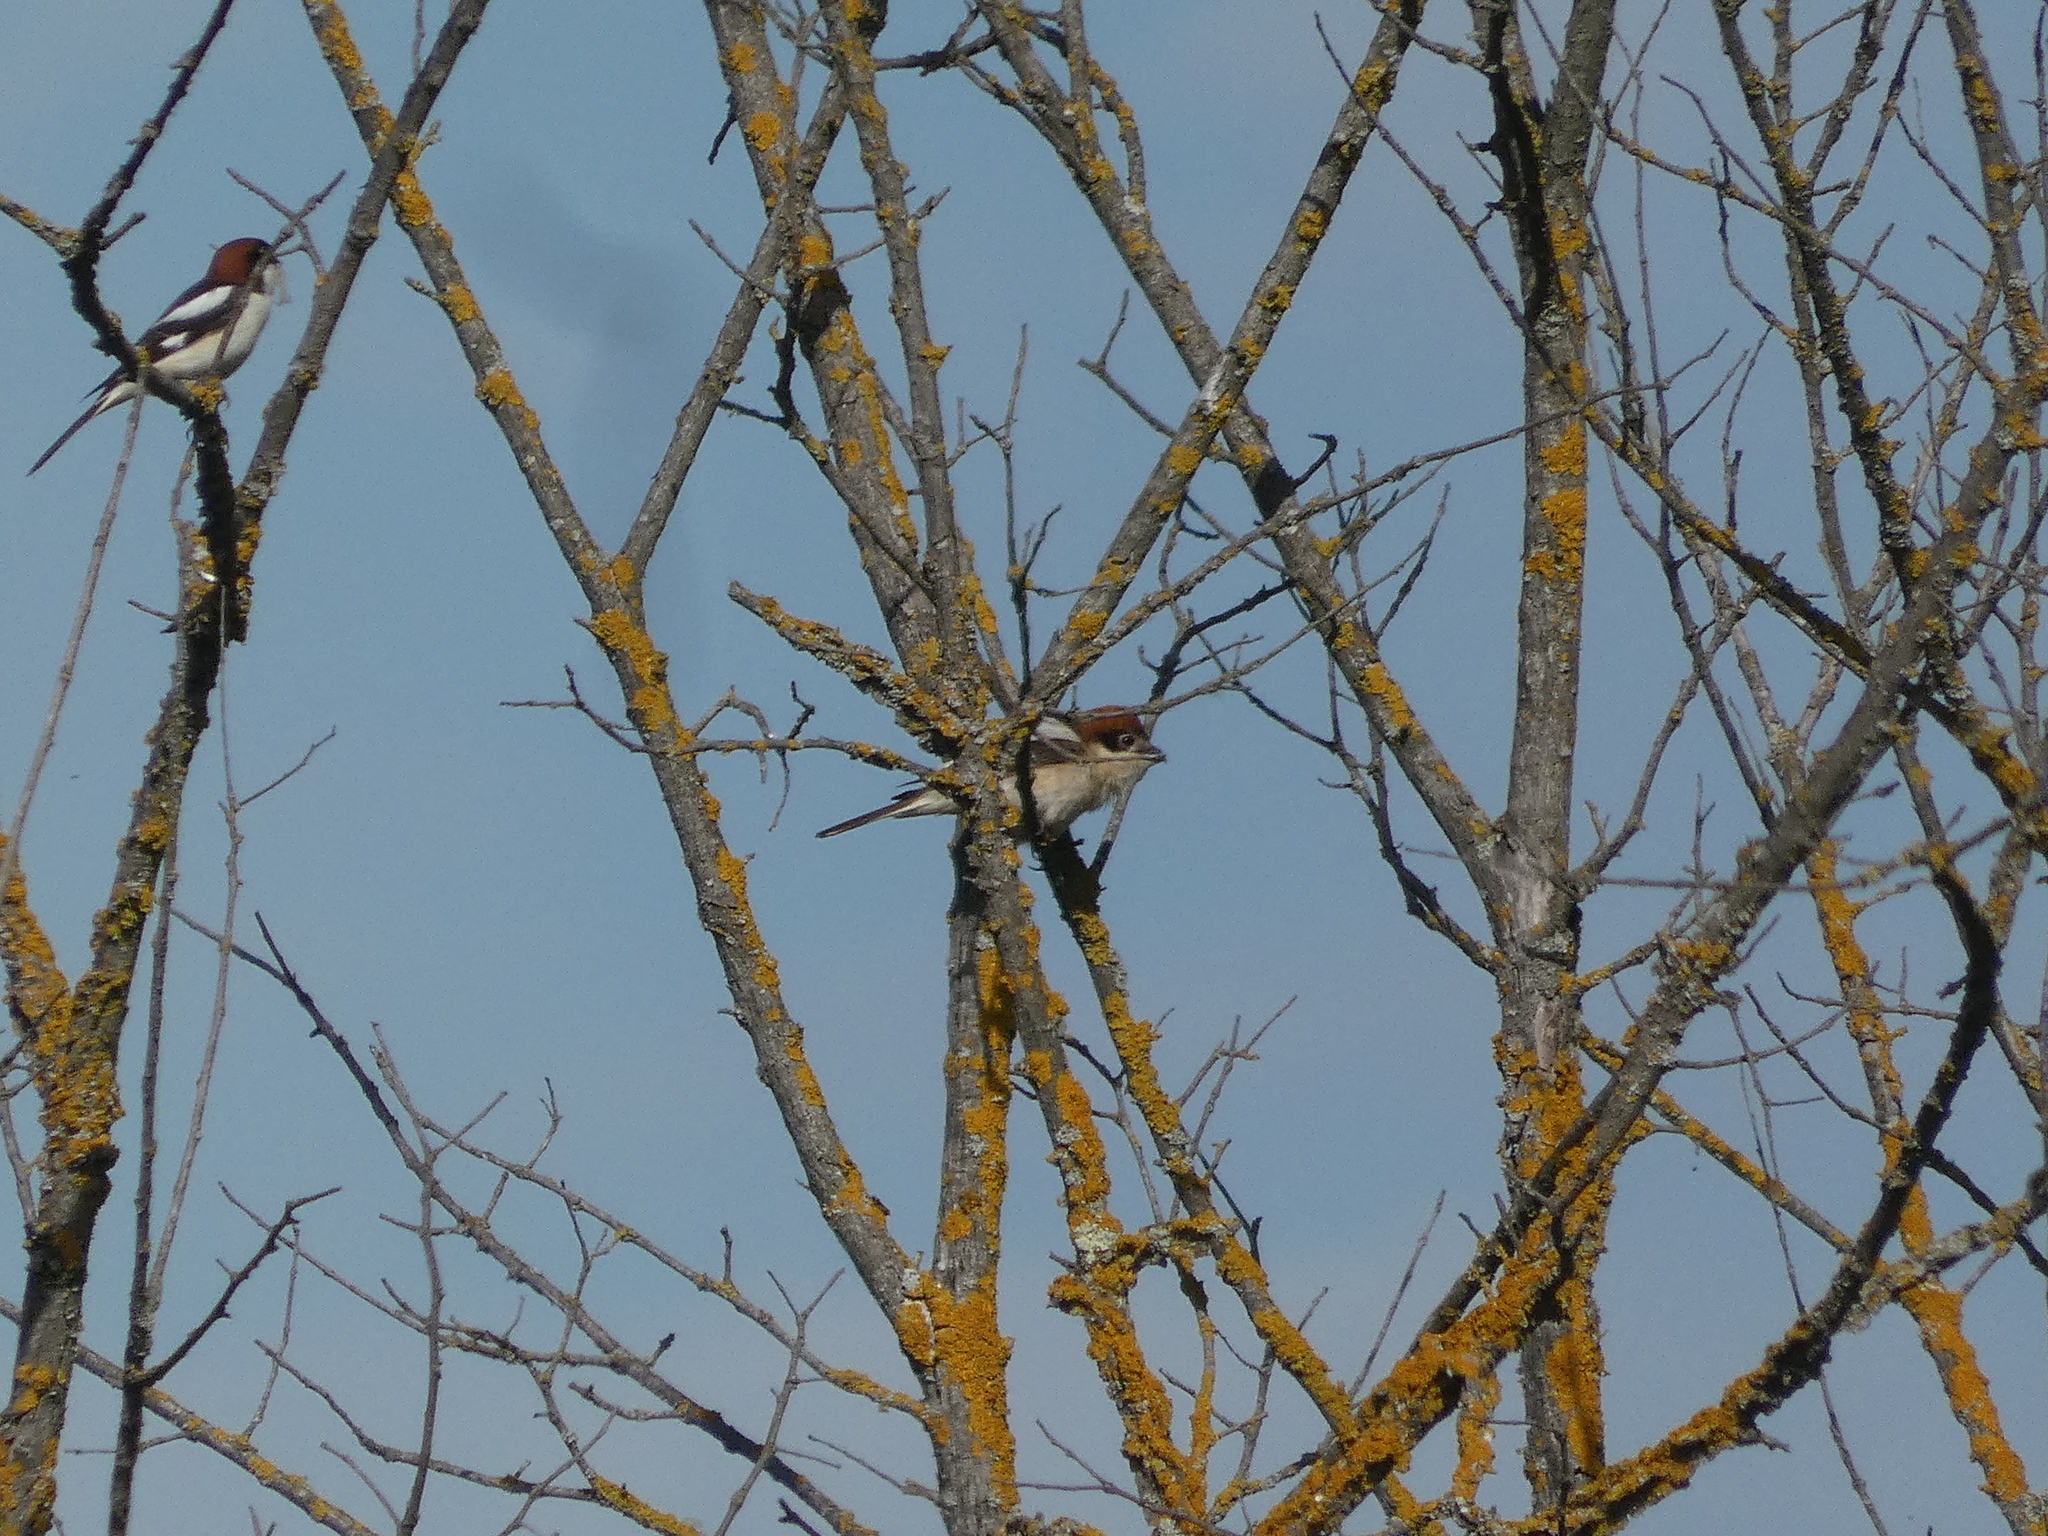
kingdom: Animalia
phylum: Chordata
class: Aves
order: Passeriformes
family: Laniidae
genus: Lanius
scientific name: Lanius senator
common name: Woodchat shrike
